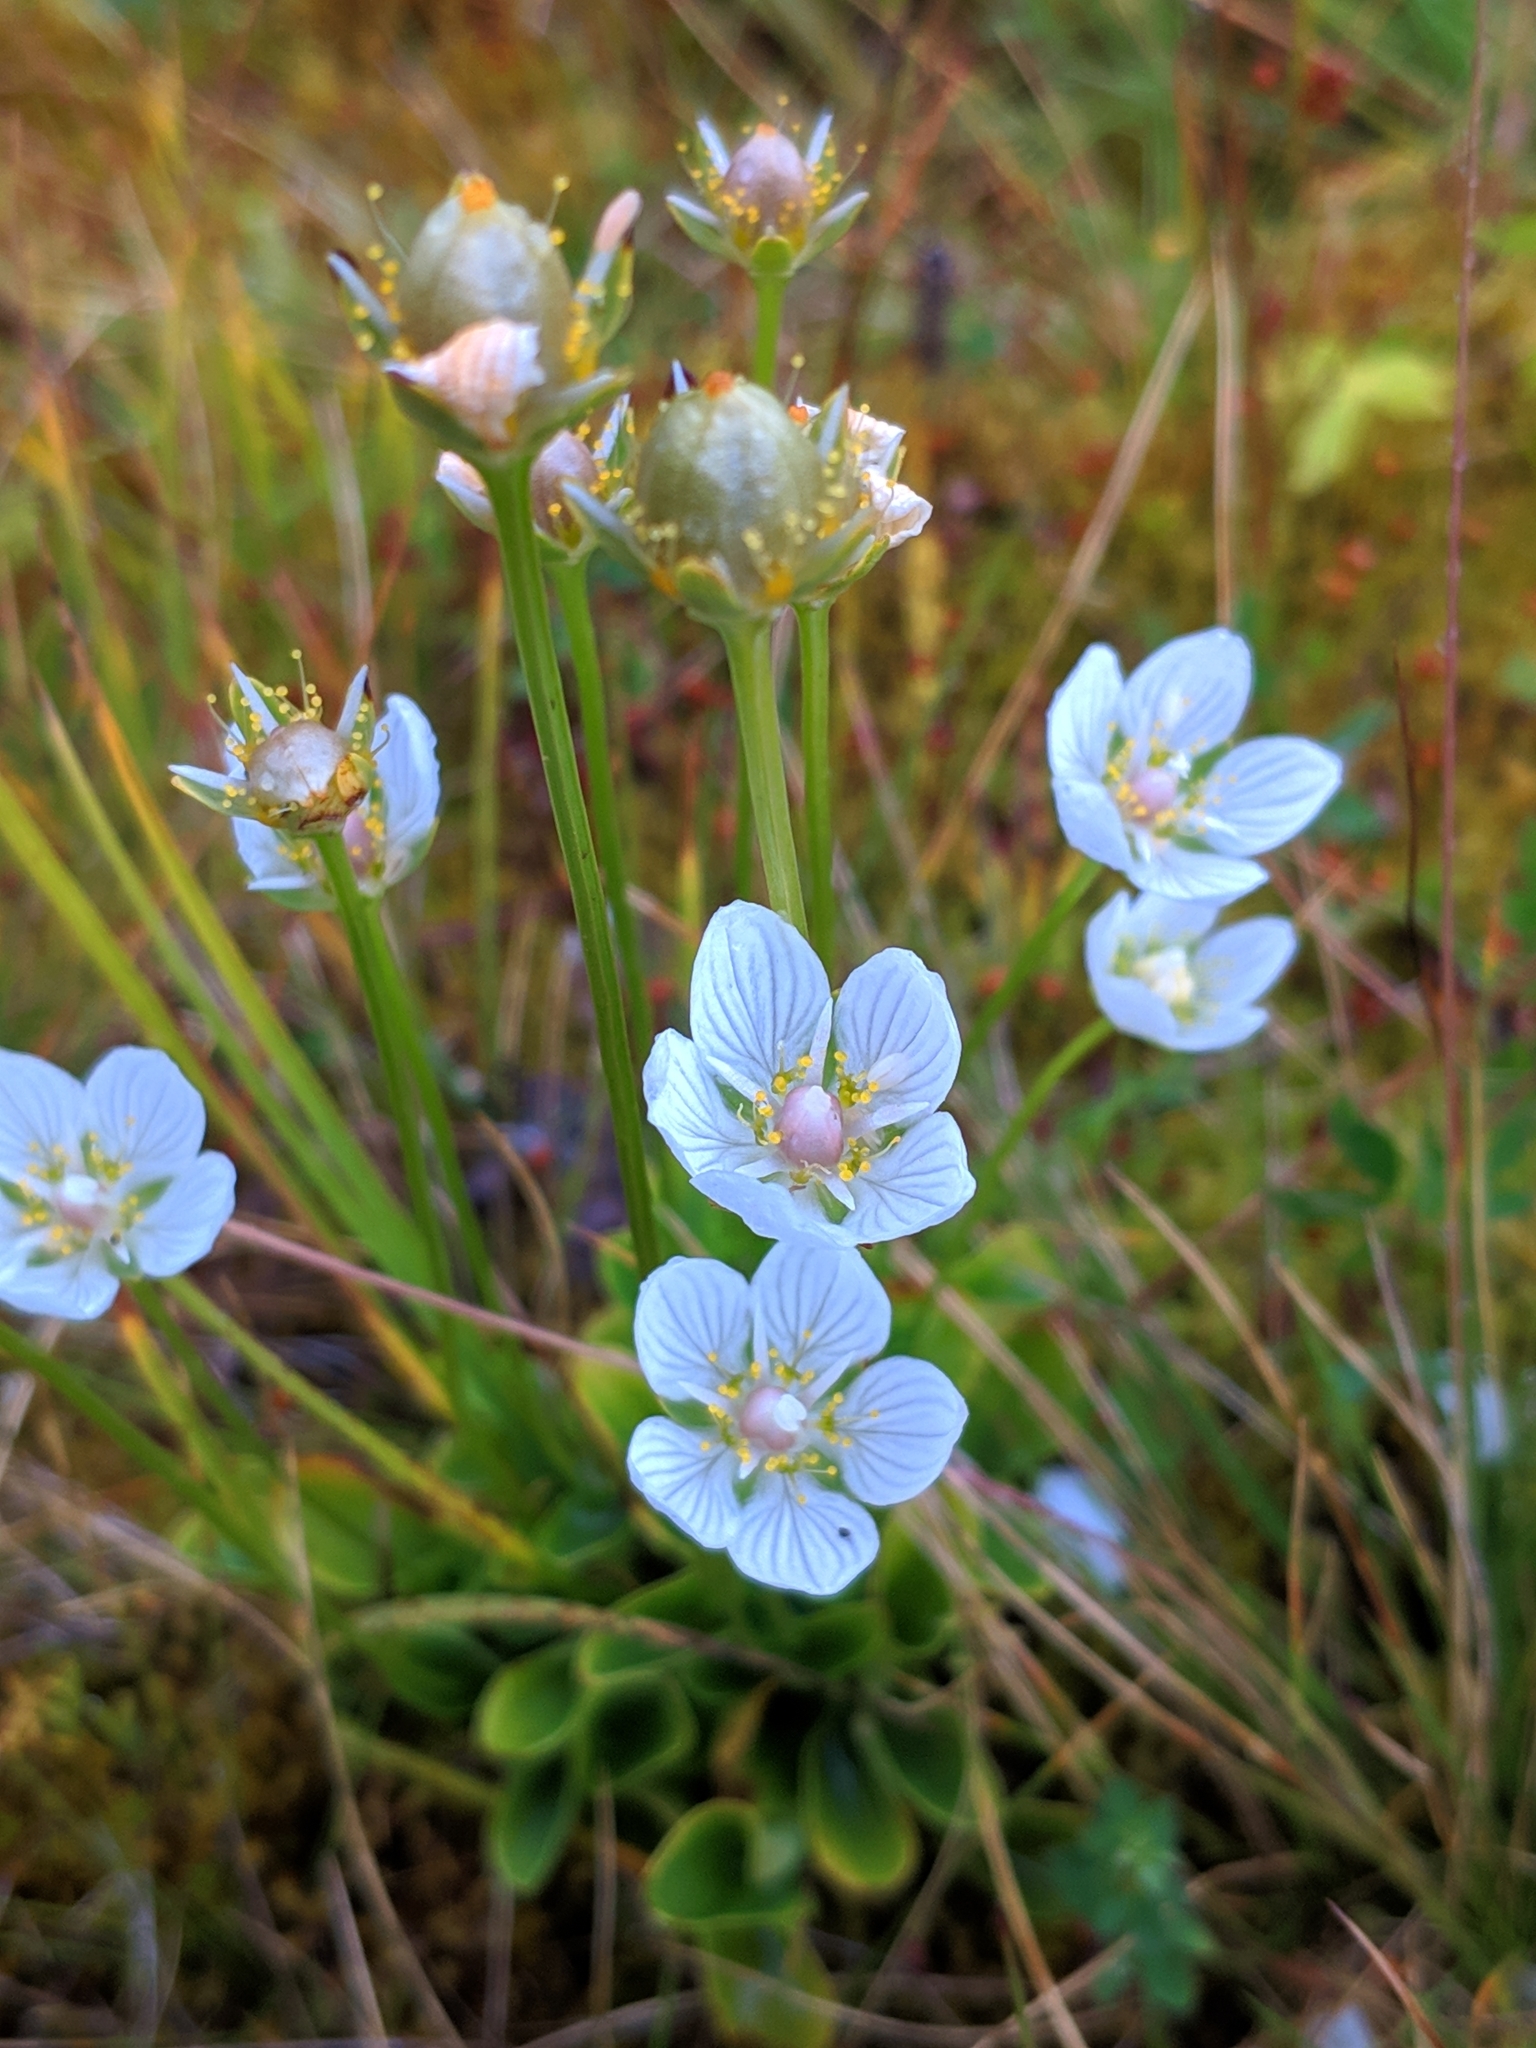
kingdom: Plantae
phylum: Tracheophyta
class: Magnoliopsida
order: Celastrales
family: Parnassiaceae
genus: Parnassia
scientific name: Parnassia palustris
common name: Grass-of-parnassus
